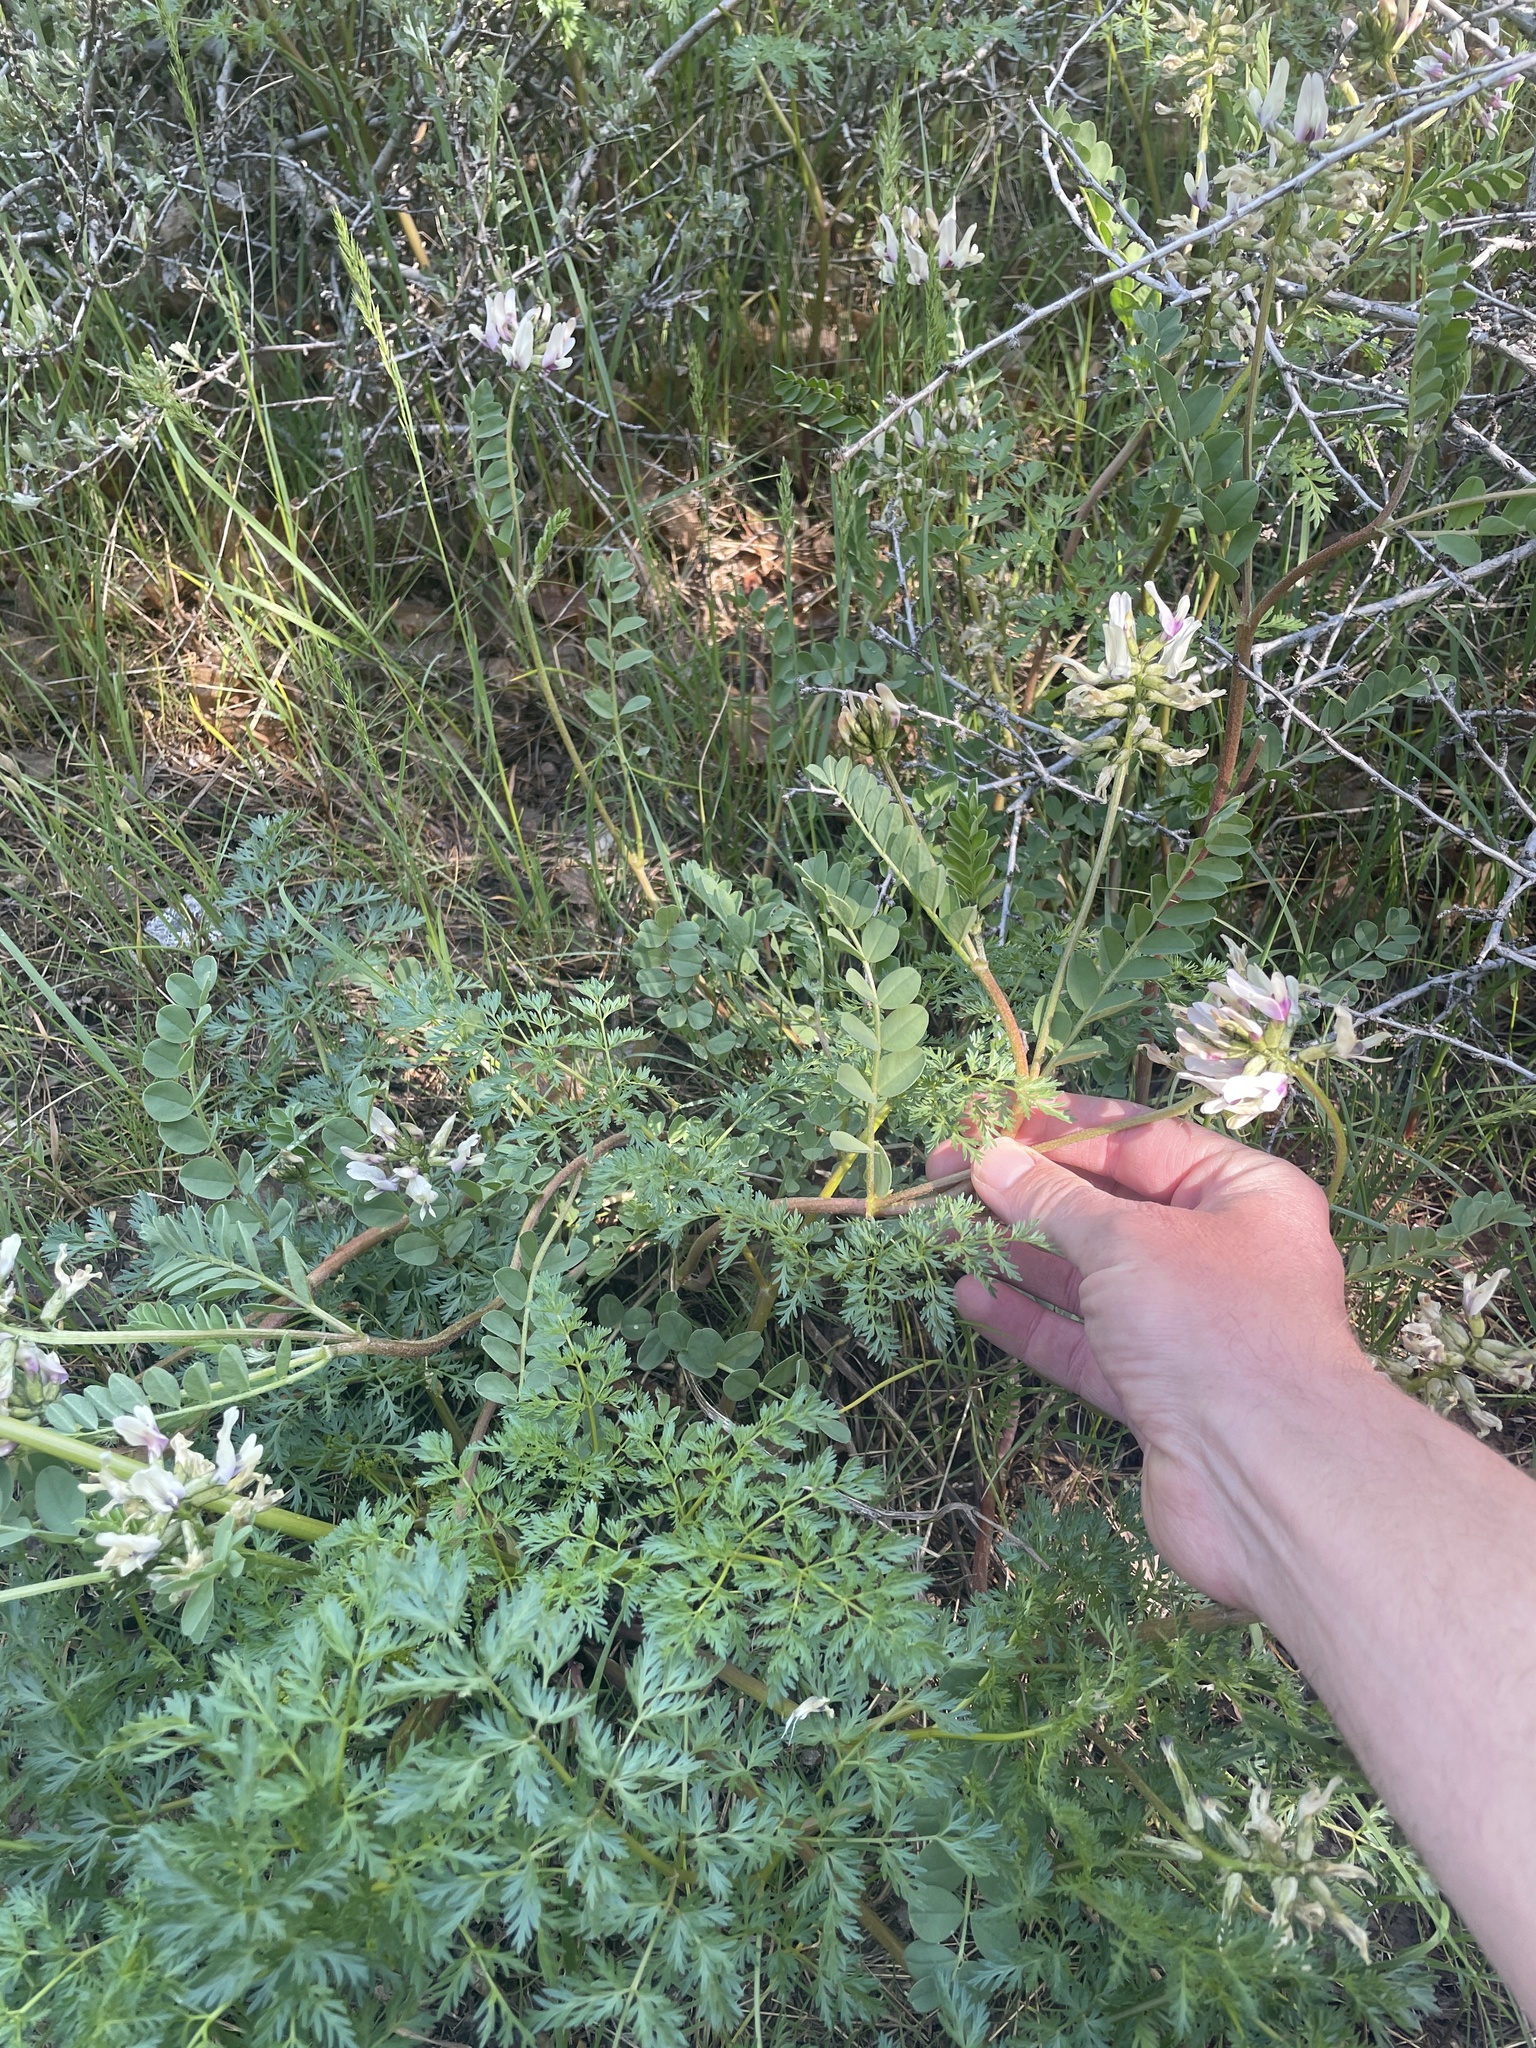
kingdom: Plantae
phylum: Tracheophyta
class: Magnoliopsida
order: Fabales
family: Fabaceae
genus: Astragalus
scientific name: Astragalus cibarius
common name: Browse milk-vetch
